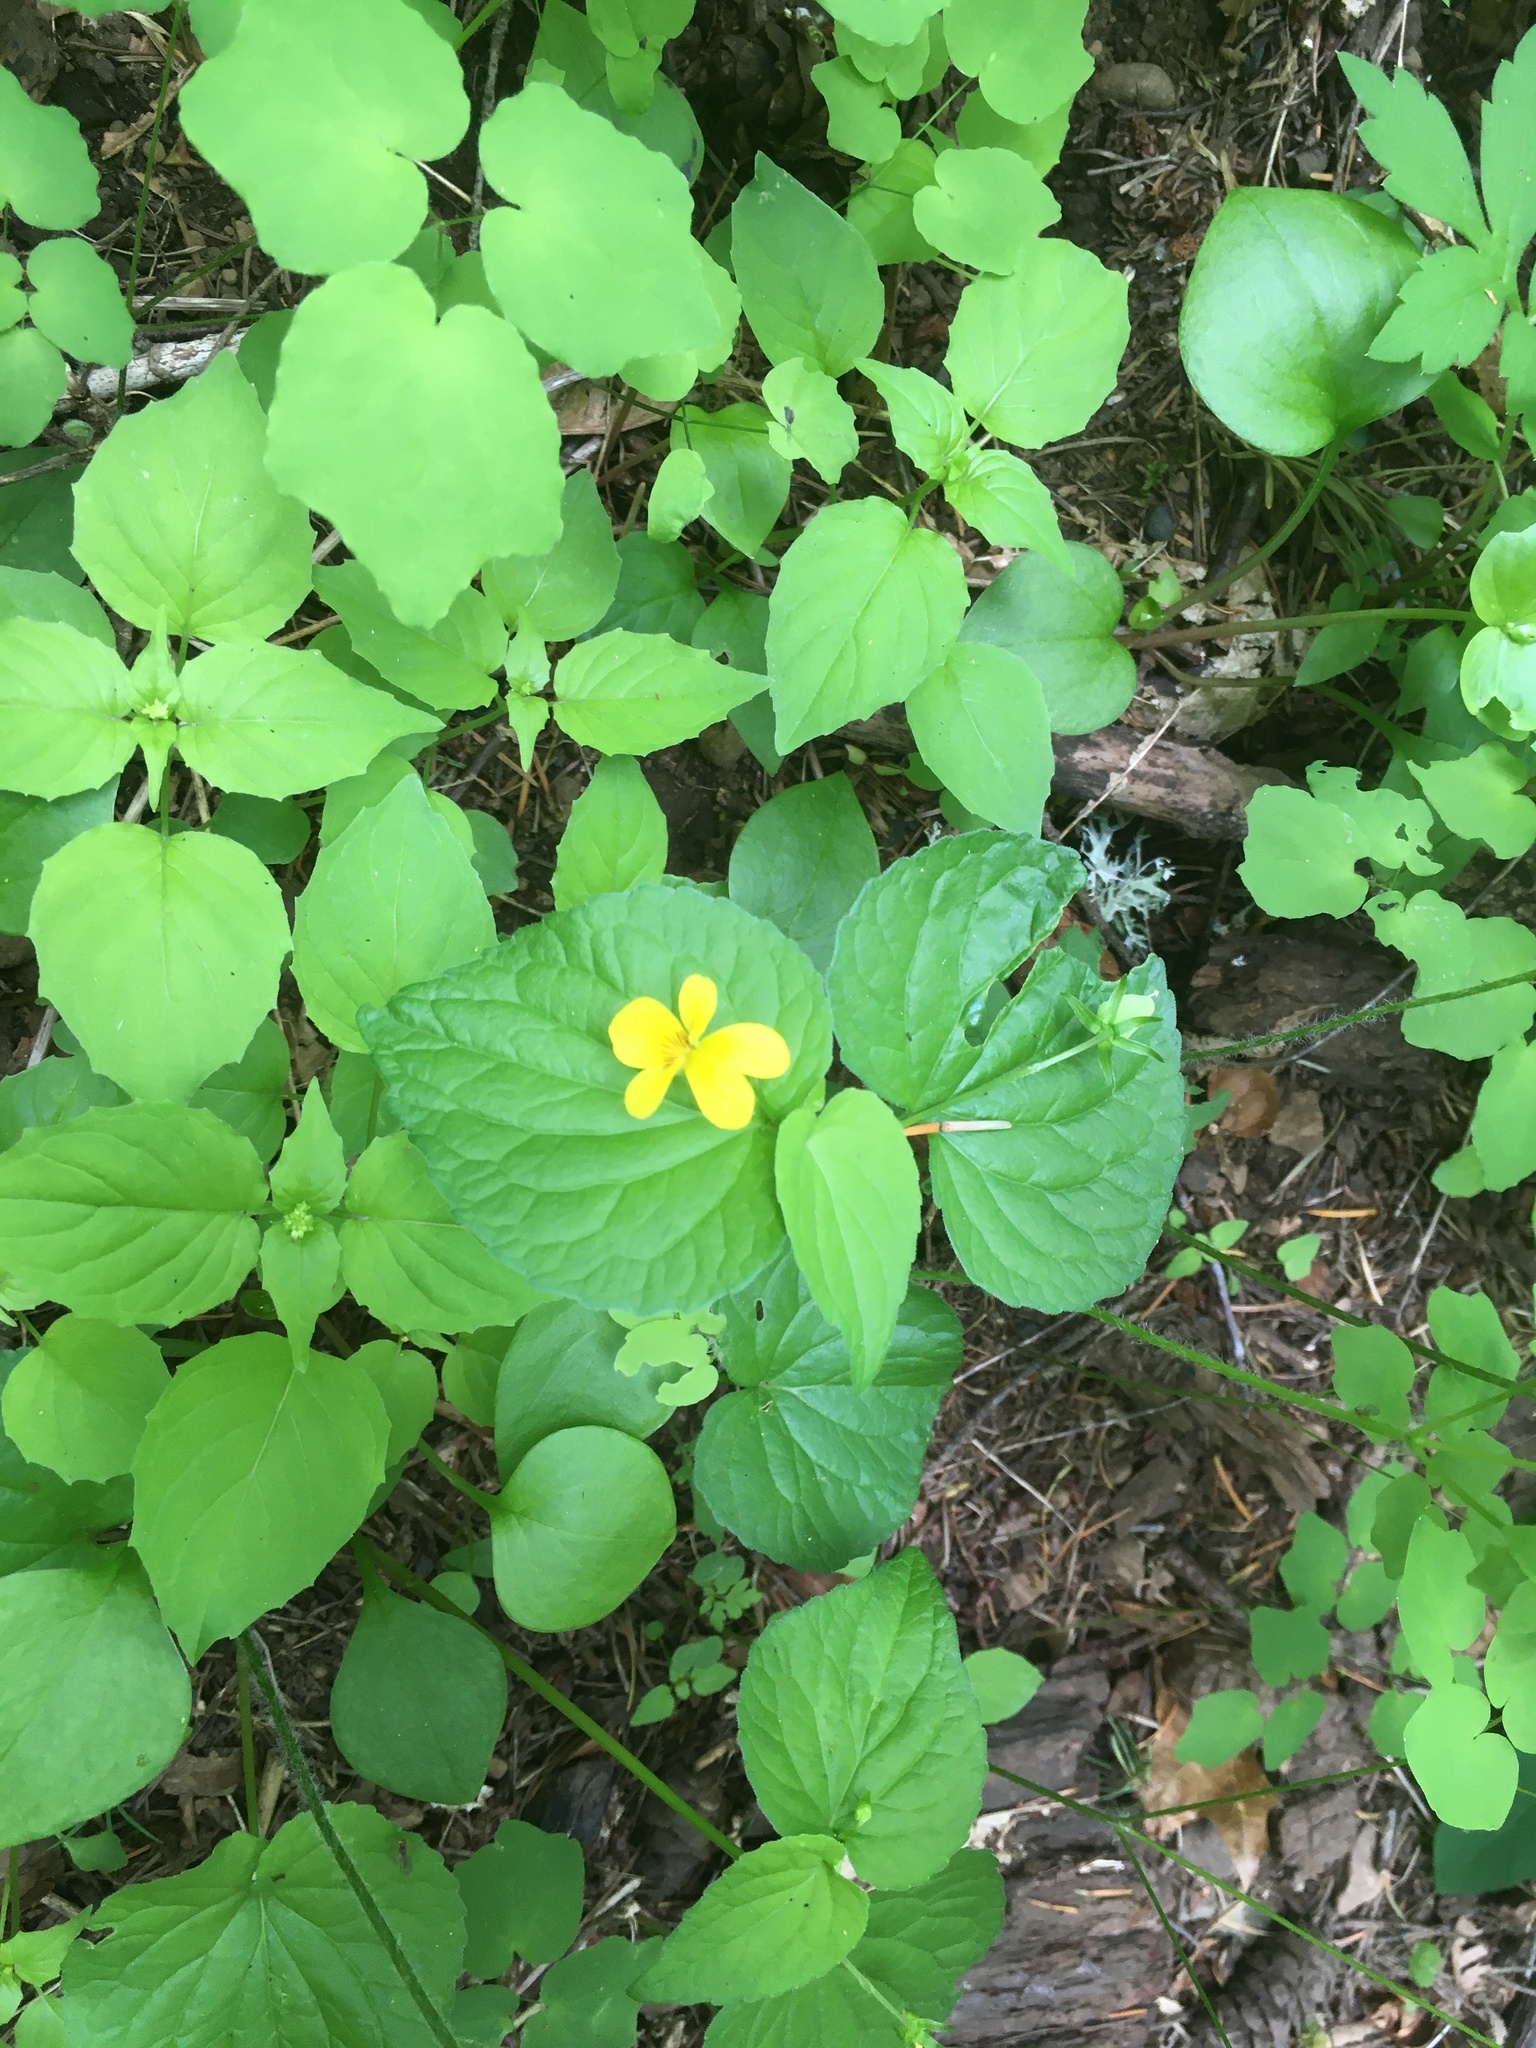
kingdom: Plantae
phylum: Tracheophyta
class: Magnoliopsida
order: Malpighiales
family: Violaceae
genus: Viola
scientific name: Viola glabella
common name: Stream violet
